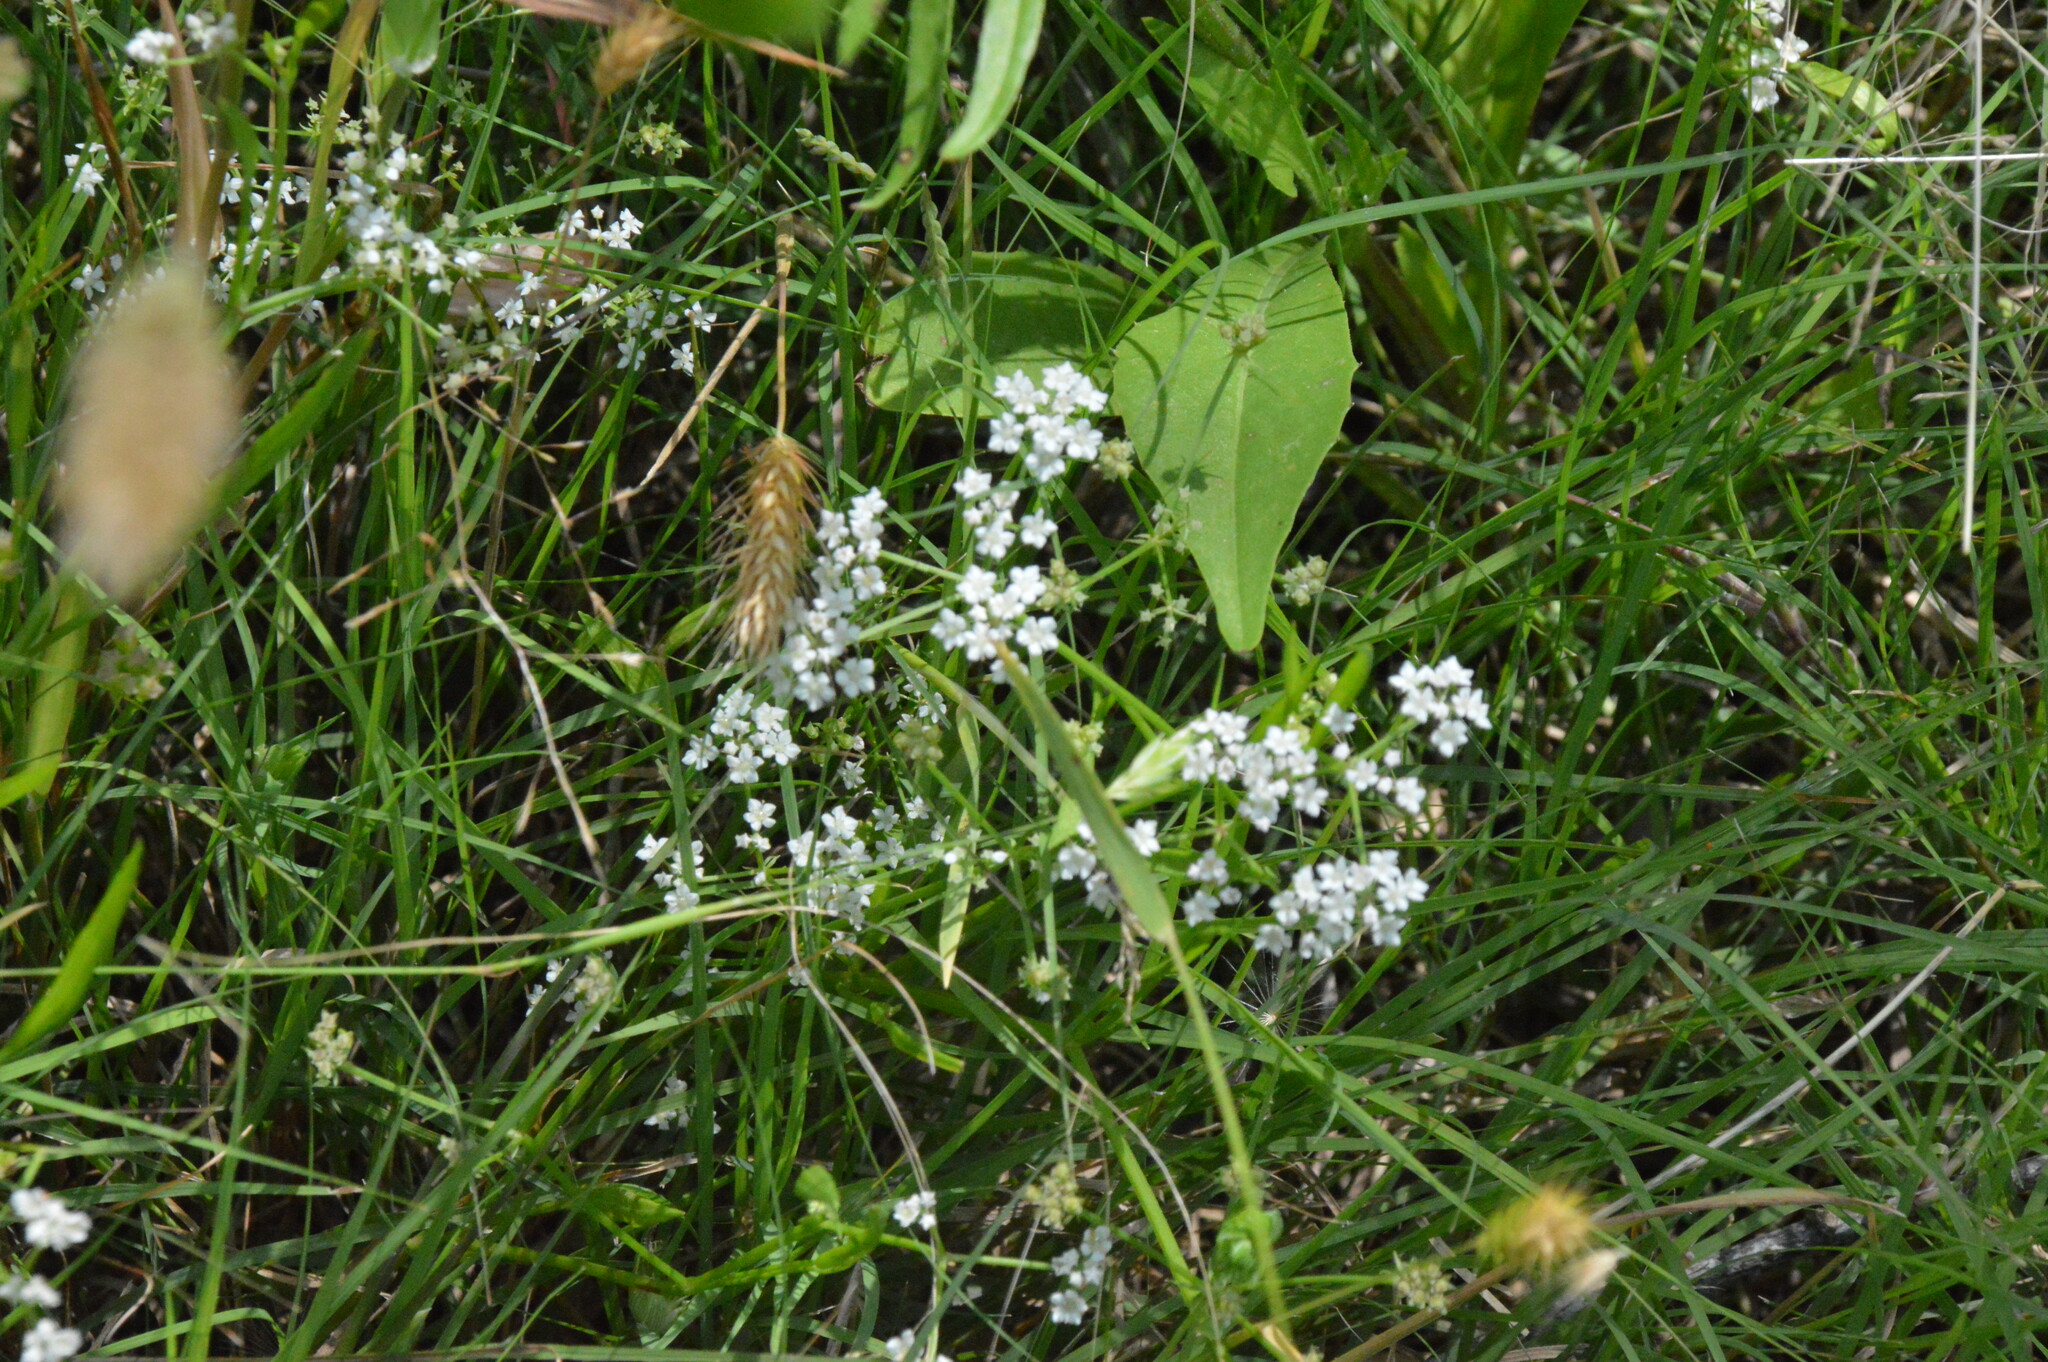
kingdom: Plantae
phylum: Tracheophyta
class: Magnoliopsida
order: Apiales
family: Apiaceae
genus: Limnosciadium
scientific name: Limnosciadium pinnatum
